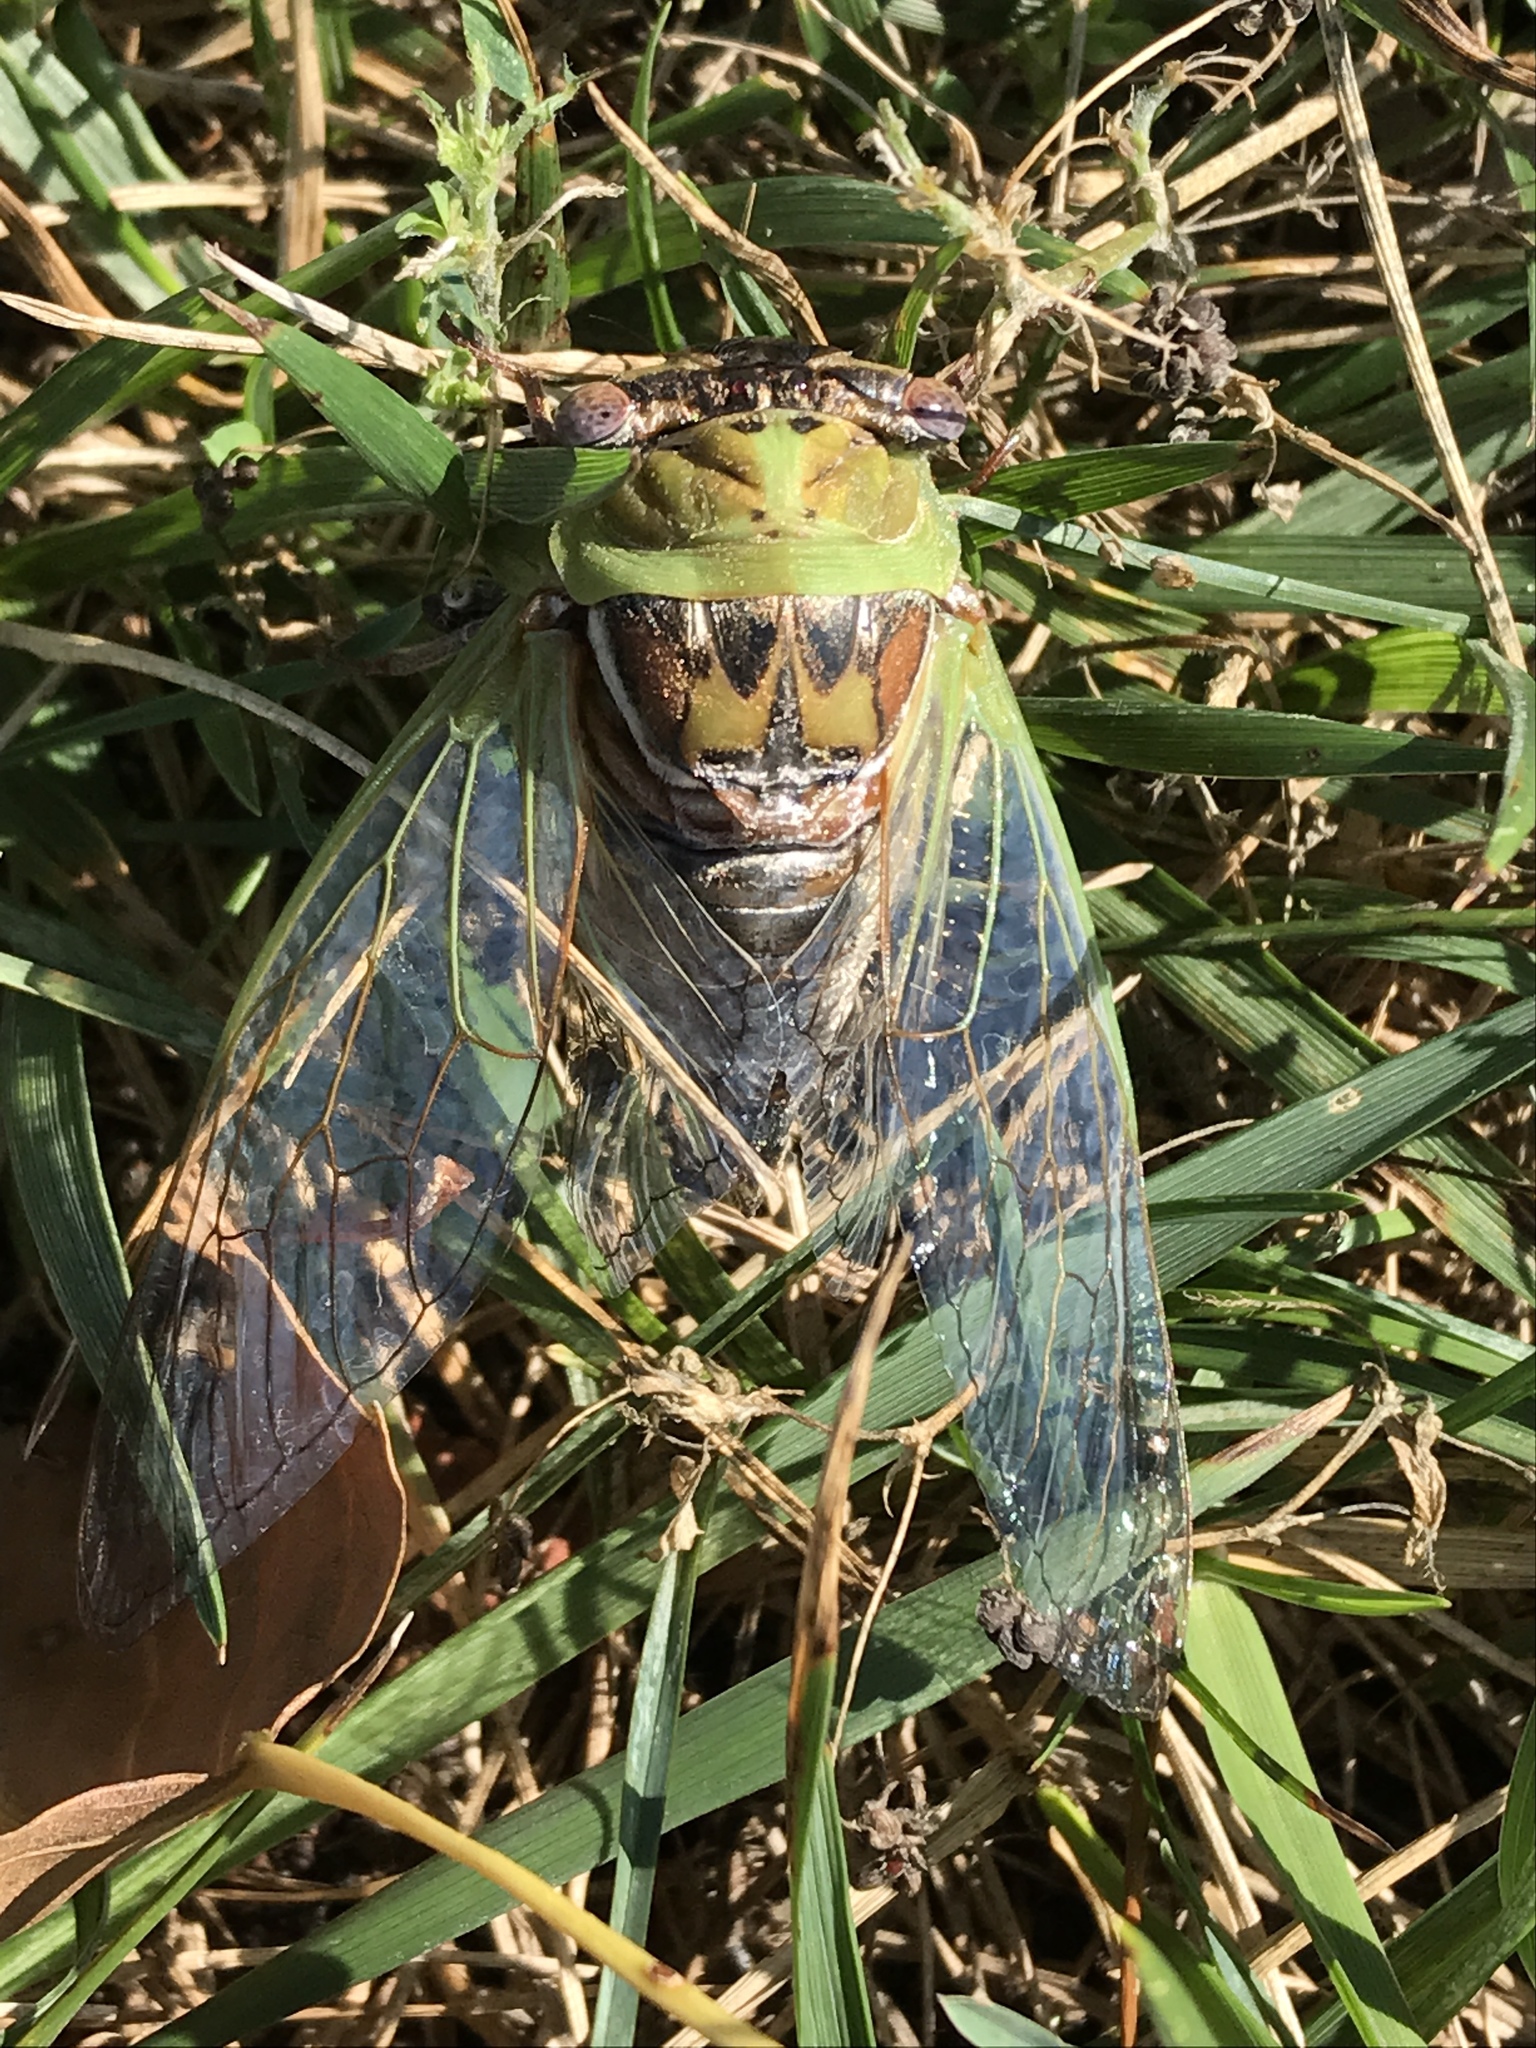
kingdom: Animalia
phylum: Arthropoda
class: Insecta
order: Hemiptera
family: Cicadidae
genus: Megatibicen
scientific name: Megatibicen pronotalis
